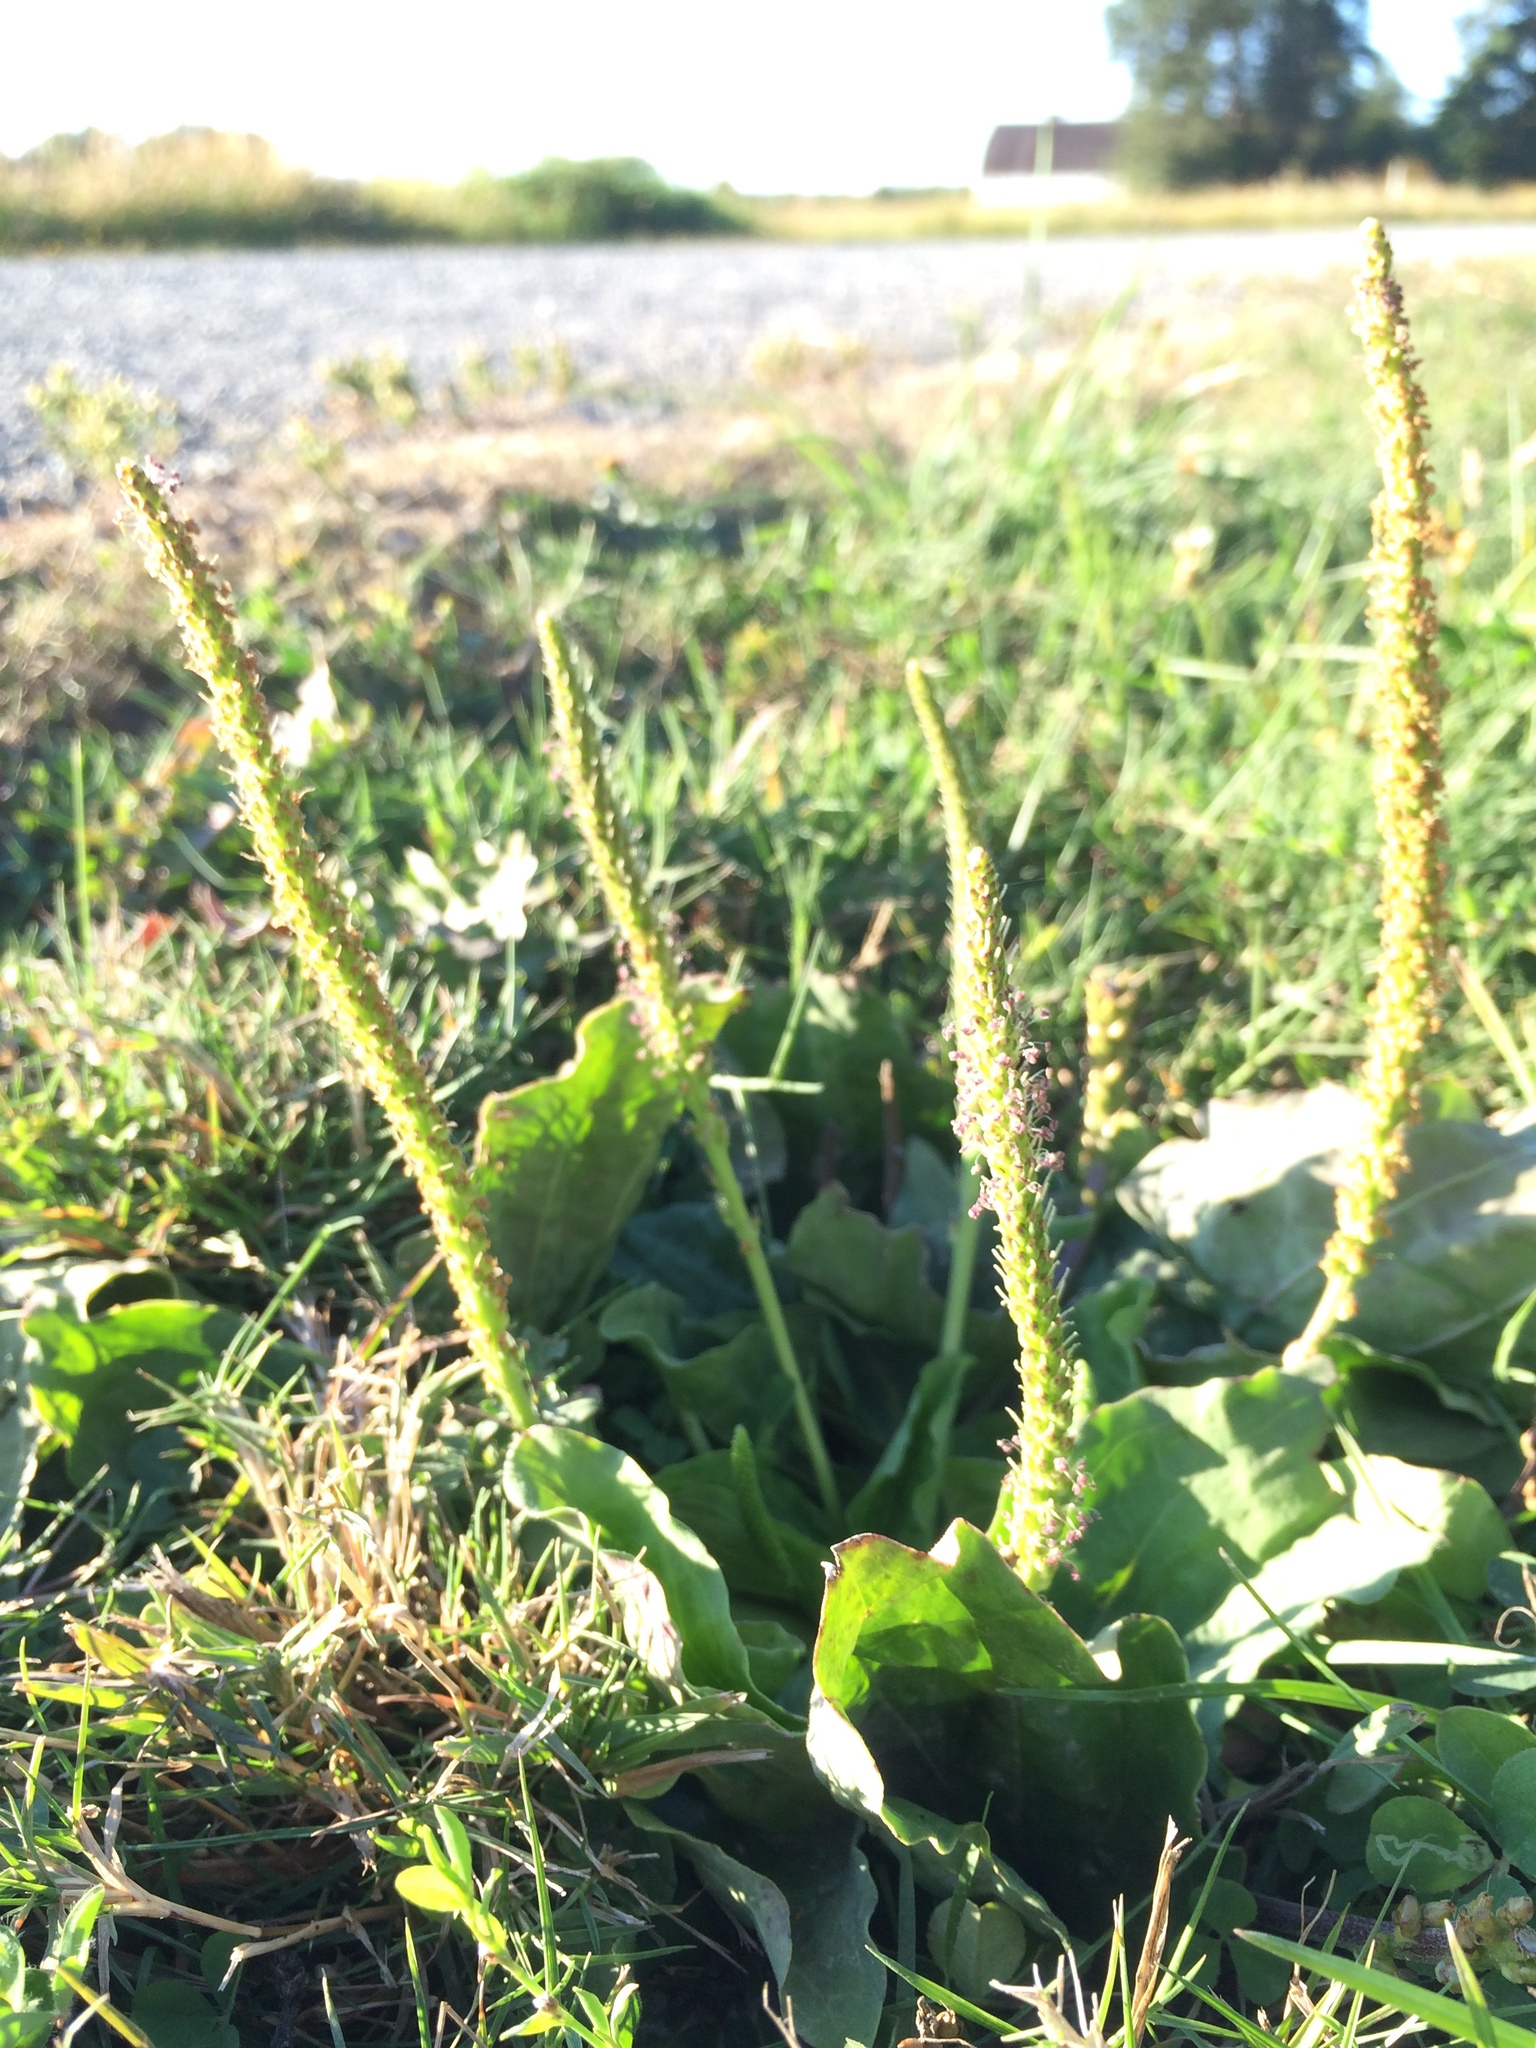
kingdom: Plantae
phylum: Tracheophyta
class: Magnoliopsida
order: Lamiales
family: Plantaginaceae
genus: Plantago
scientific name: Plantago major
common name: Common plantain
